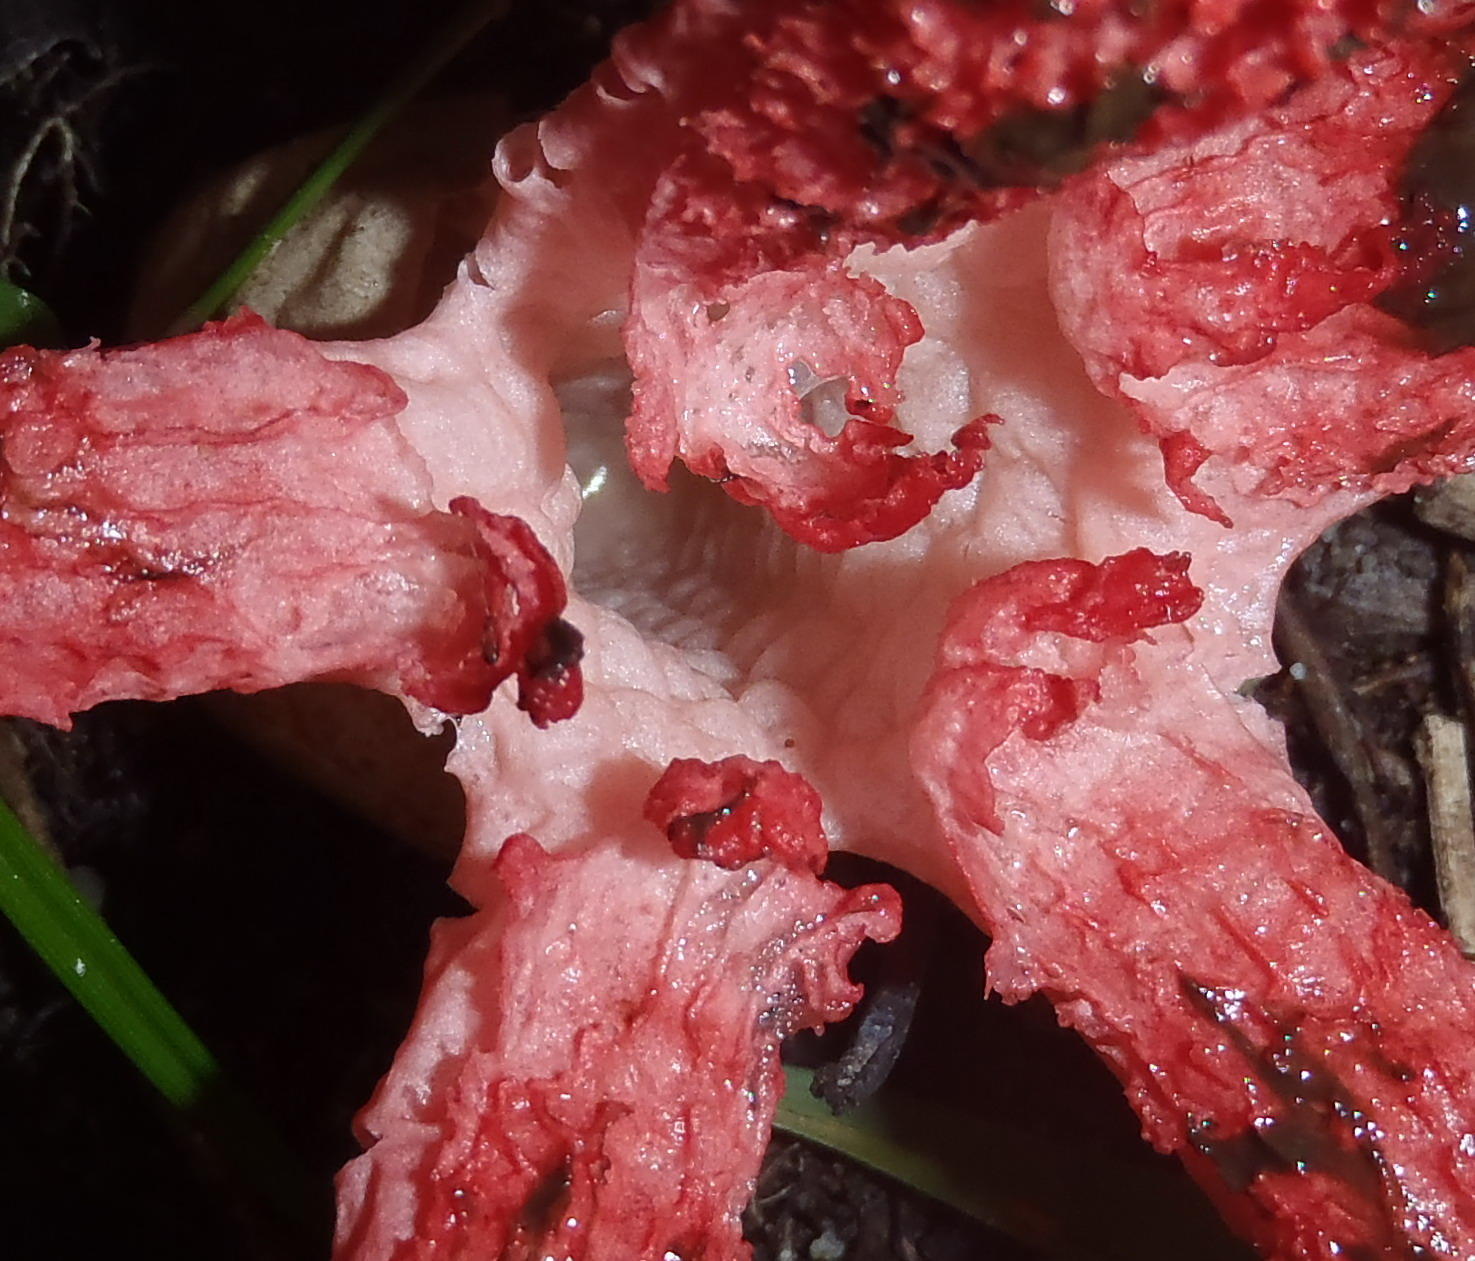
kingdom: Fungi
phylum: Basidiomycota
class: Agaricomycetes
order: Phallales
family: Phallaceae
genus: Clathrus
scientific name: Clathrus archeri
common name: Devil's fingers
